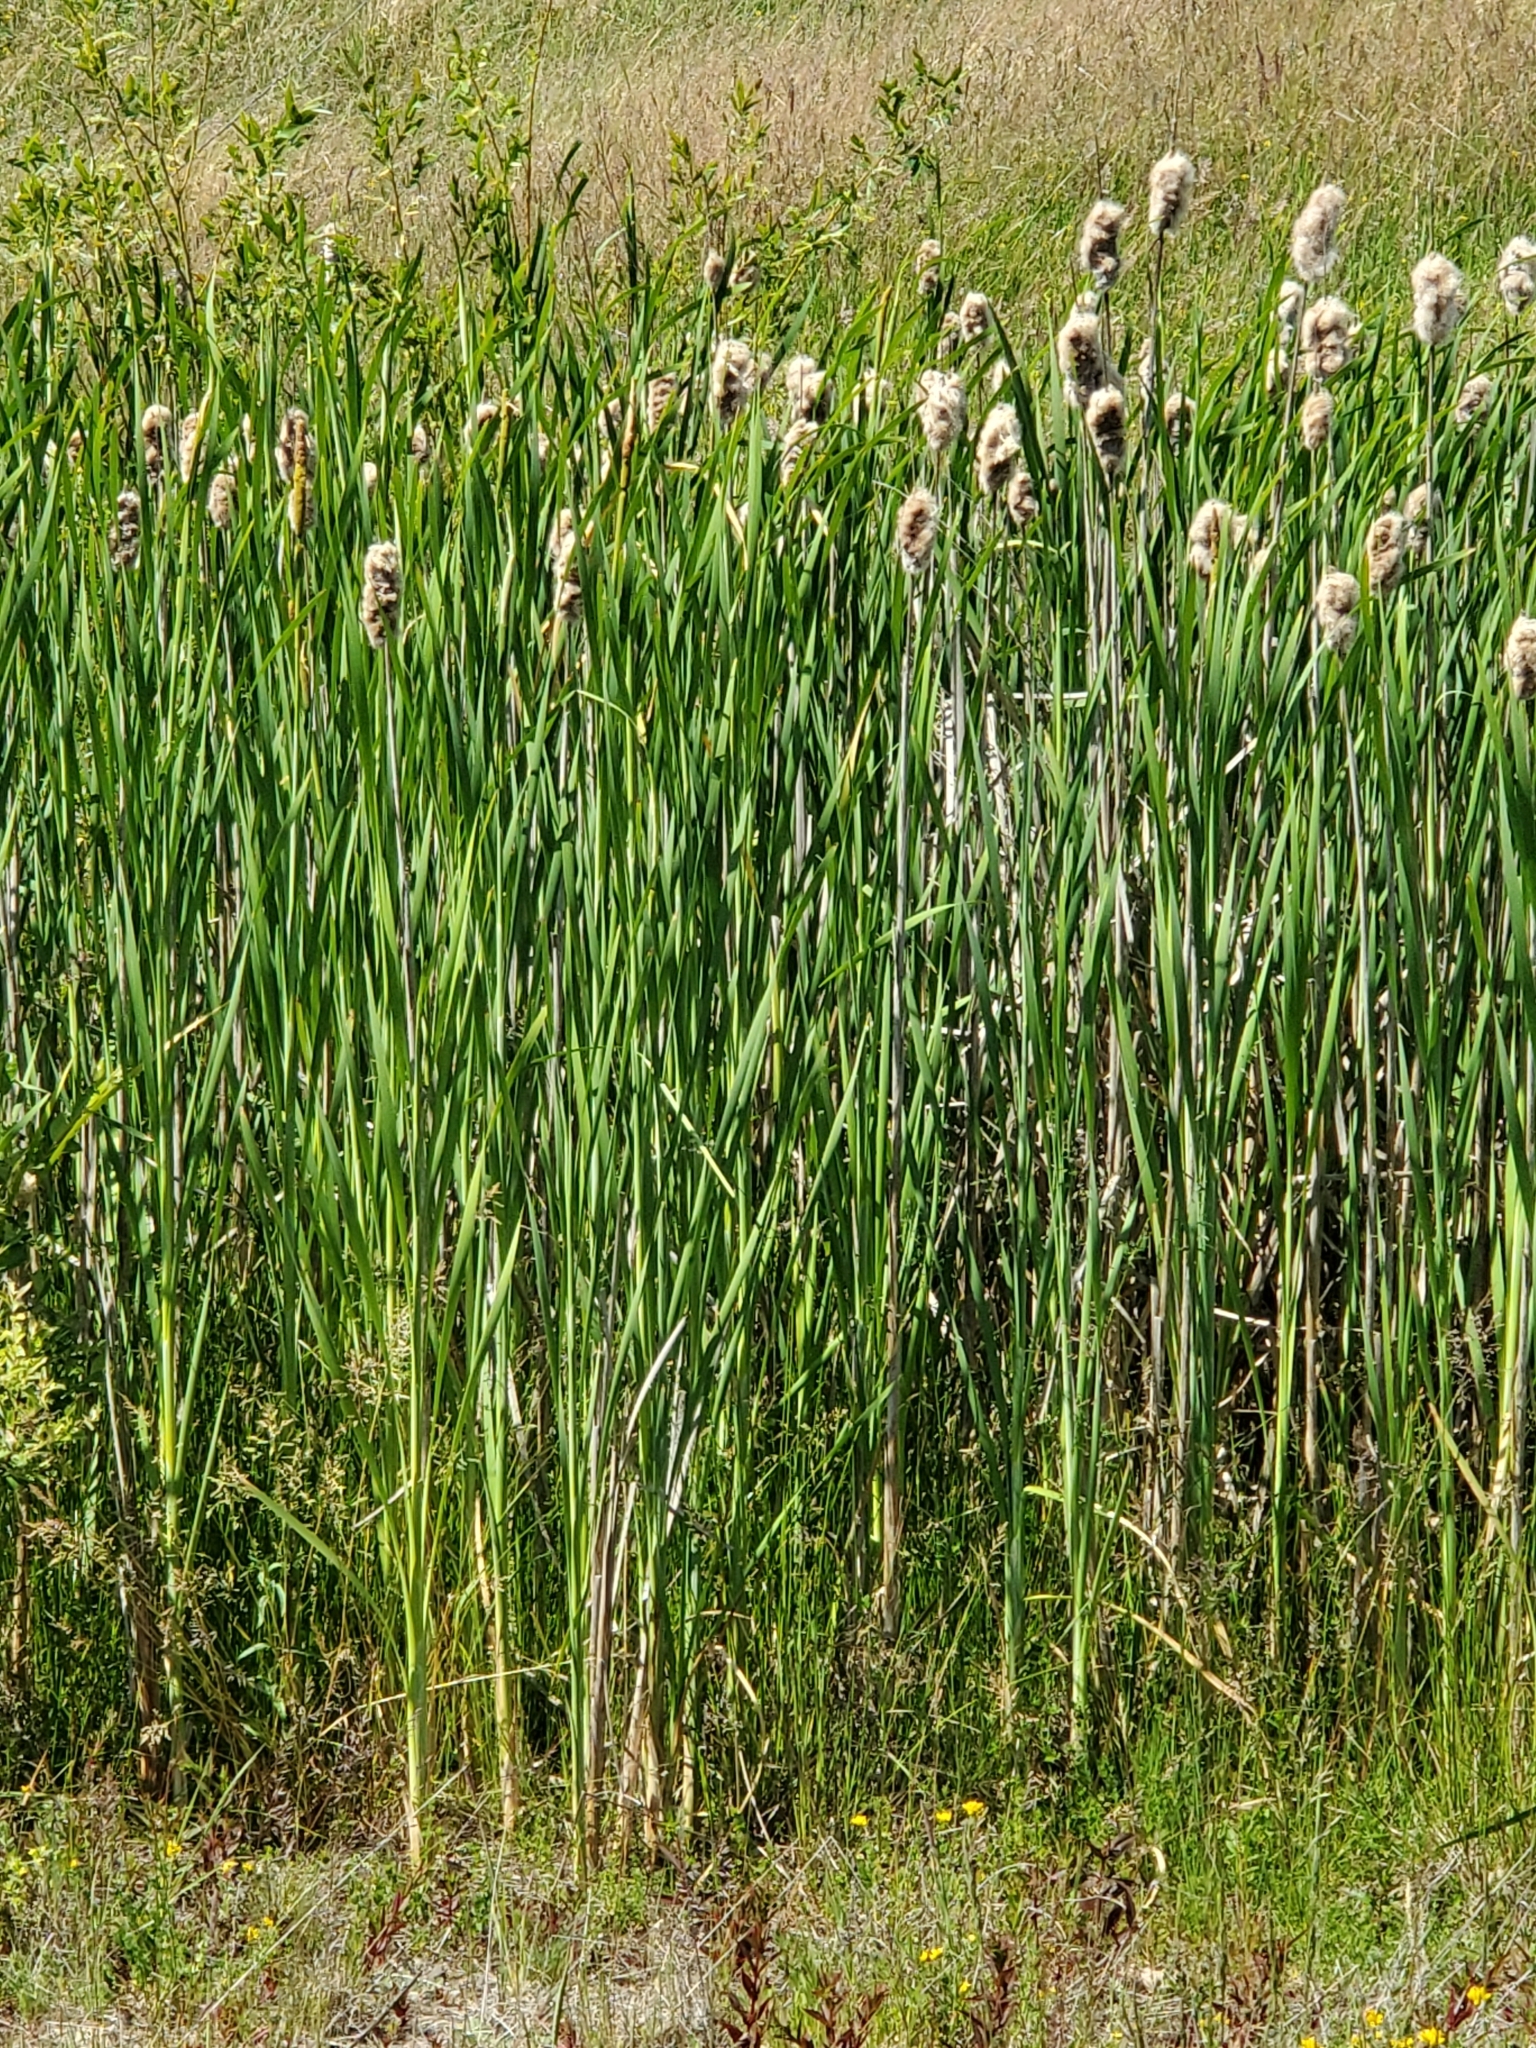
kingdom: Plantae
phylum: Tracheophyta
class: Liliopsida
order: Poales
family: Typhaceae
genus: Typha
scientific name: Typha latifolia
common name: Broadleaf cattail
